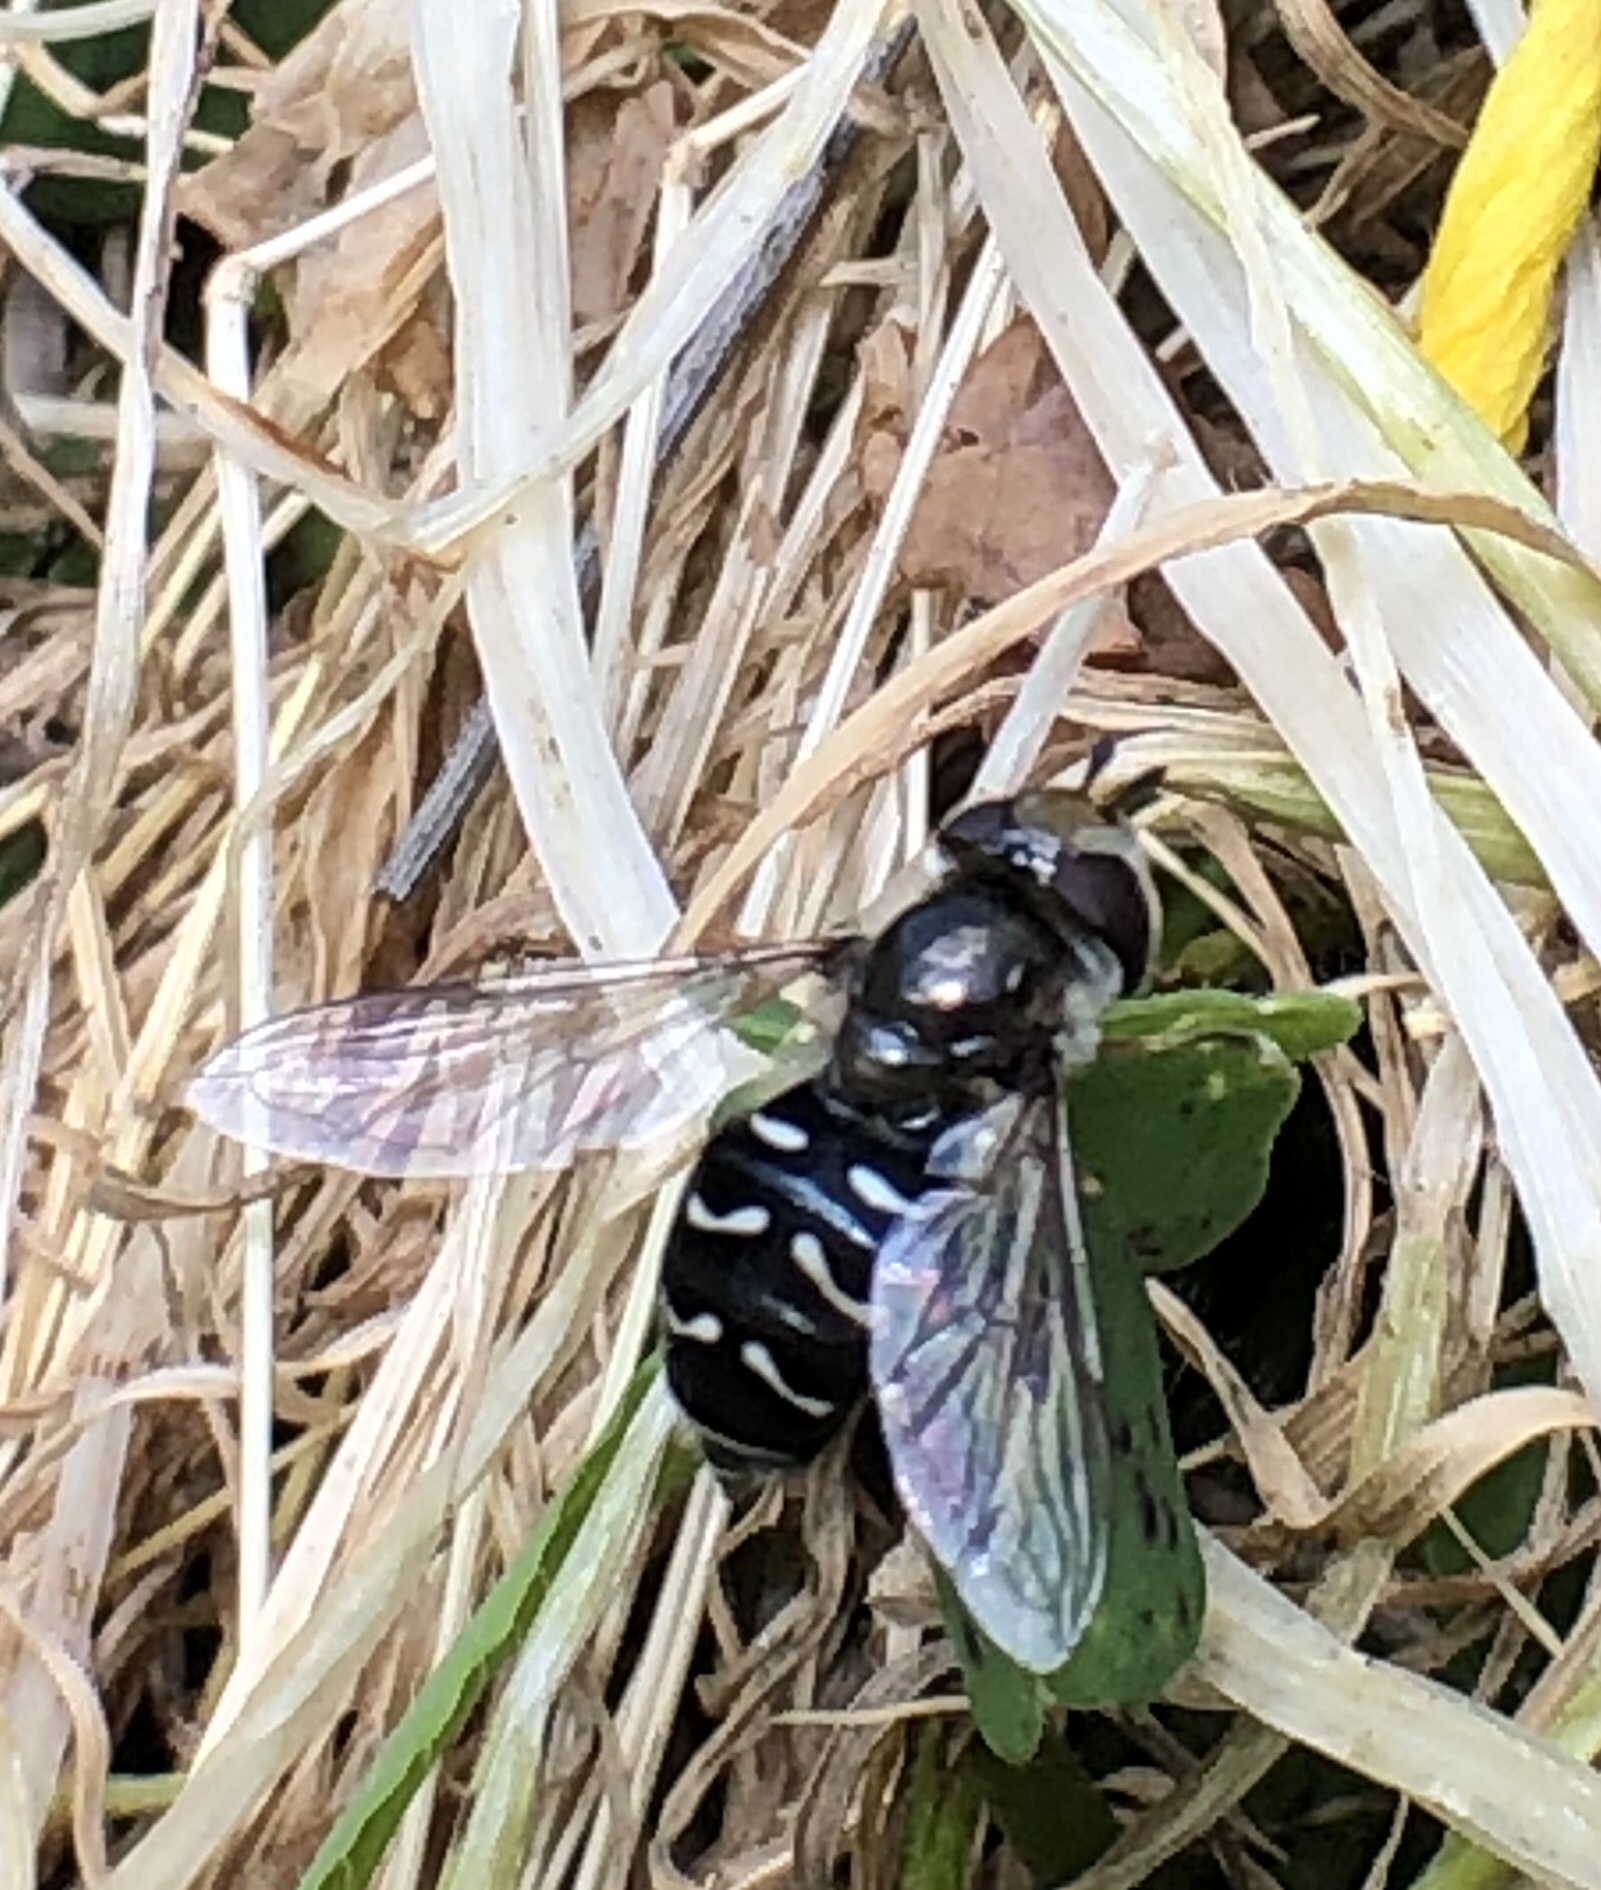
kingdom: Animalia
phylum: Arthropoda
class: Insecta
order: Diptera
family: Syrphidae
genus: Scaeva
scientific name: Scaeva affinis
